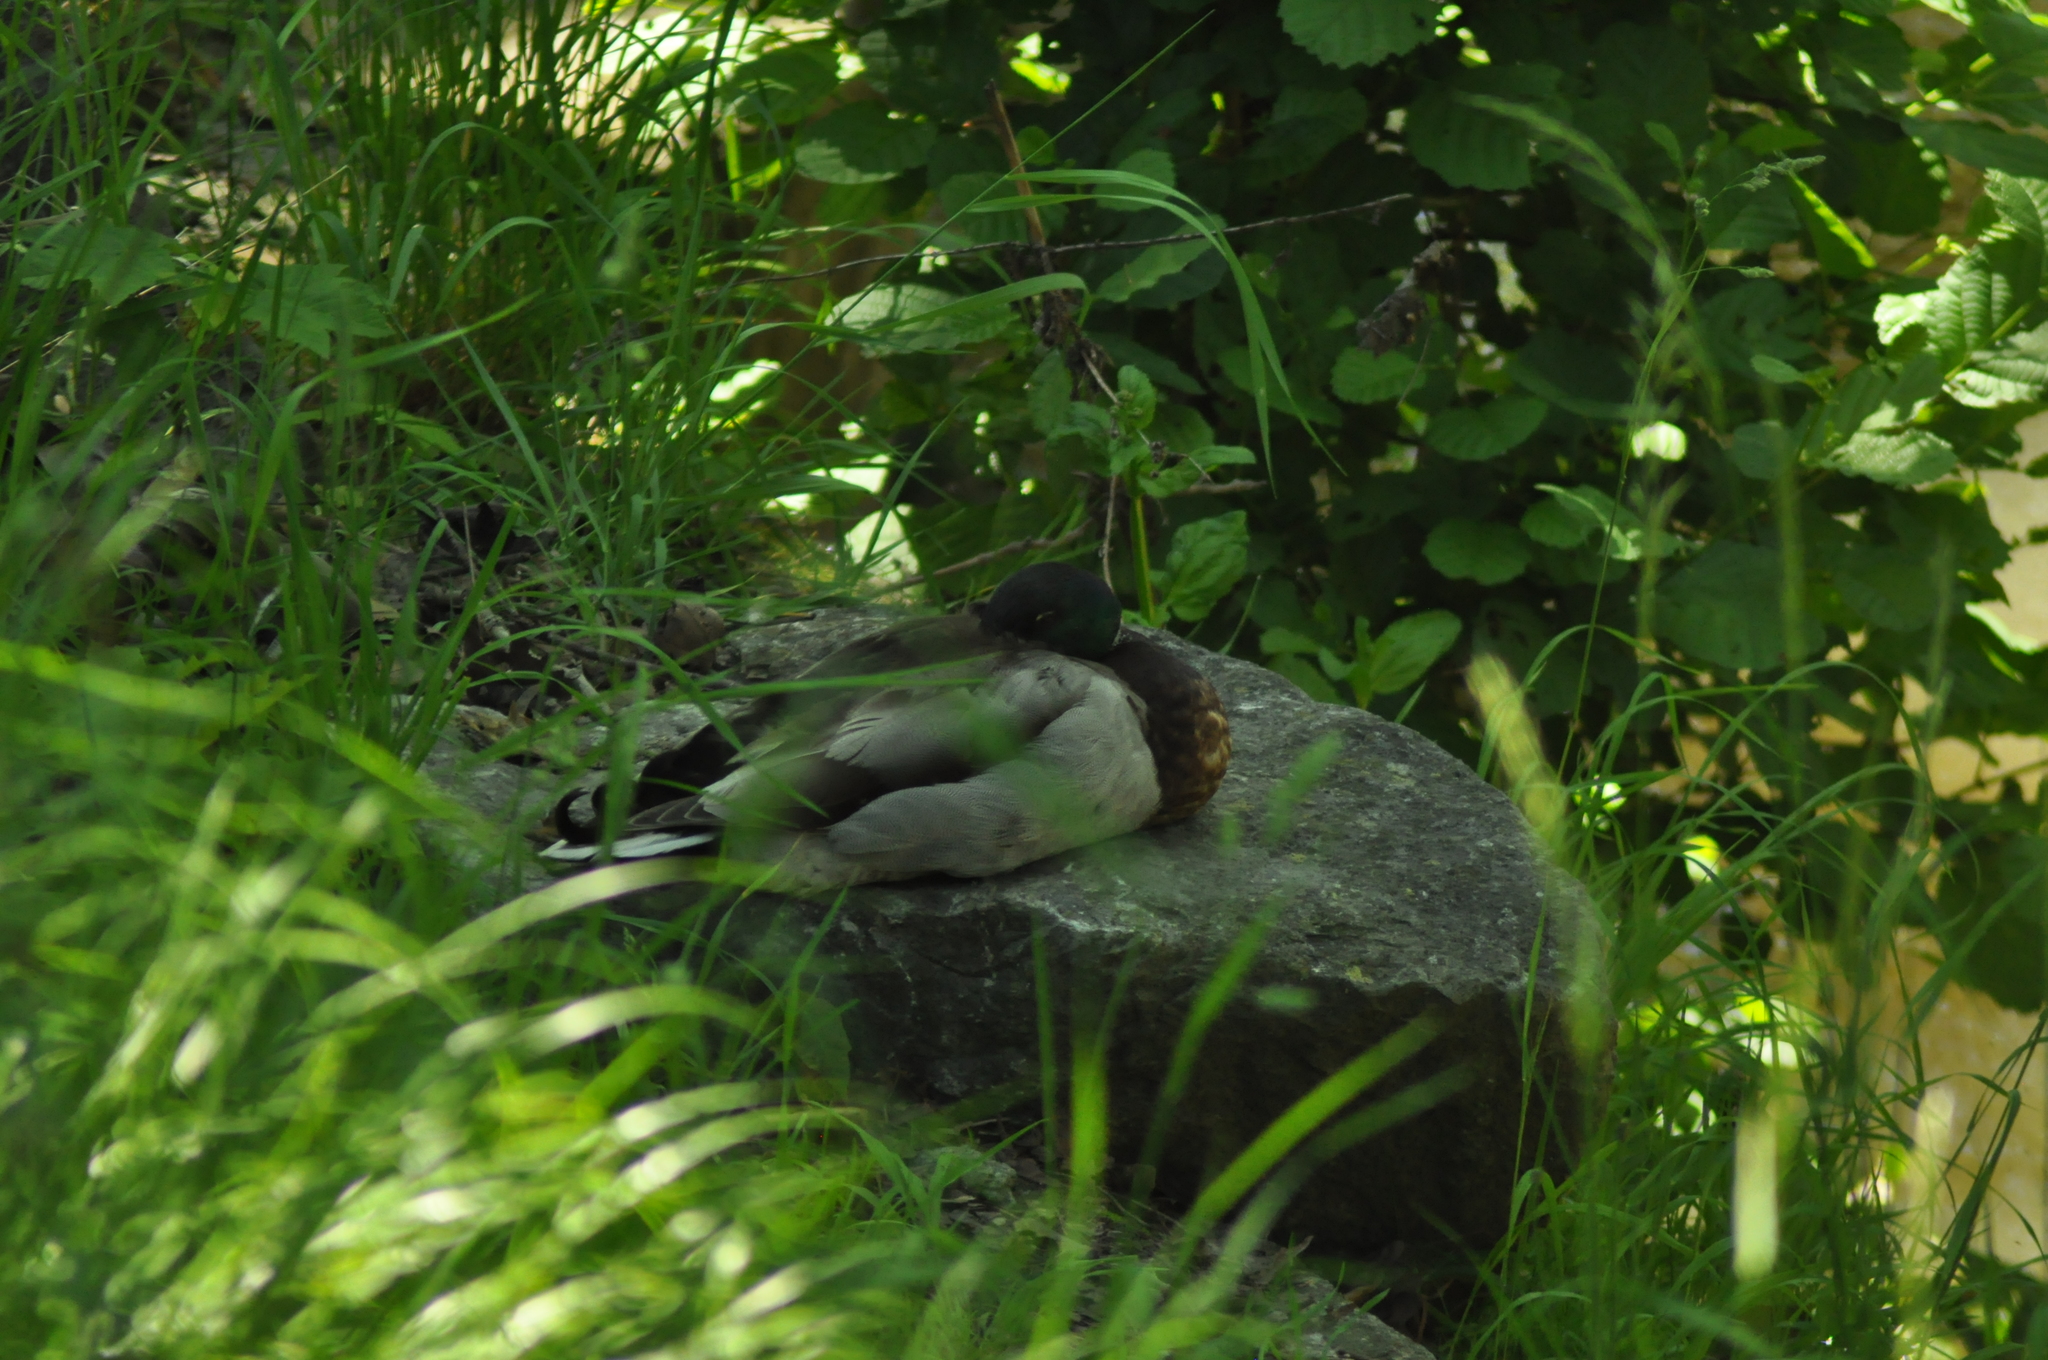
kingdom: Animalia
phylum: Chordata
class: Aves
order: Anseriformes
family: Anatidae
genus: Anas
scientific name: Anas platyrhynchos
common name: Mallard
